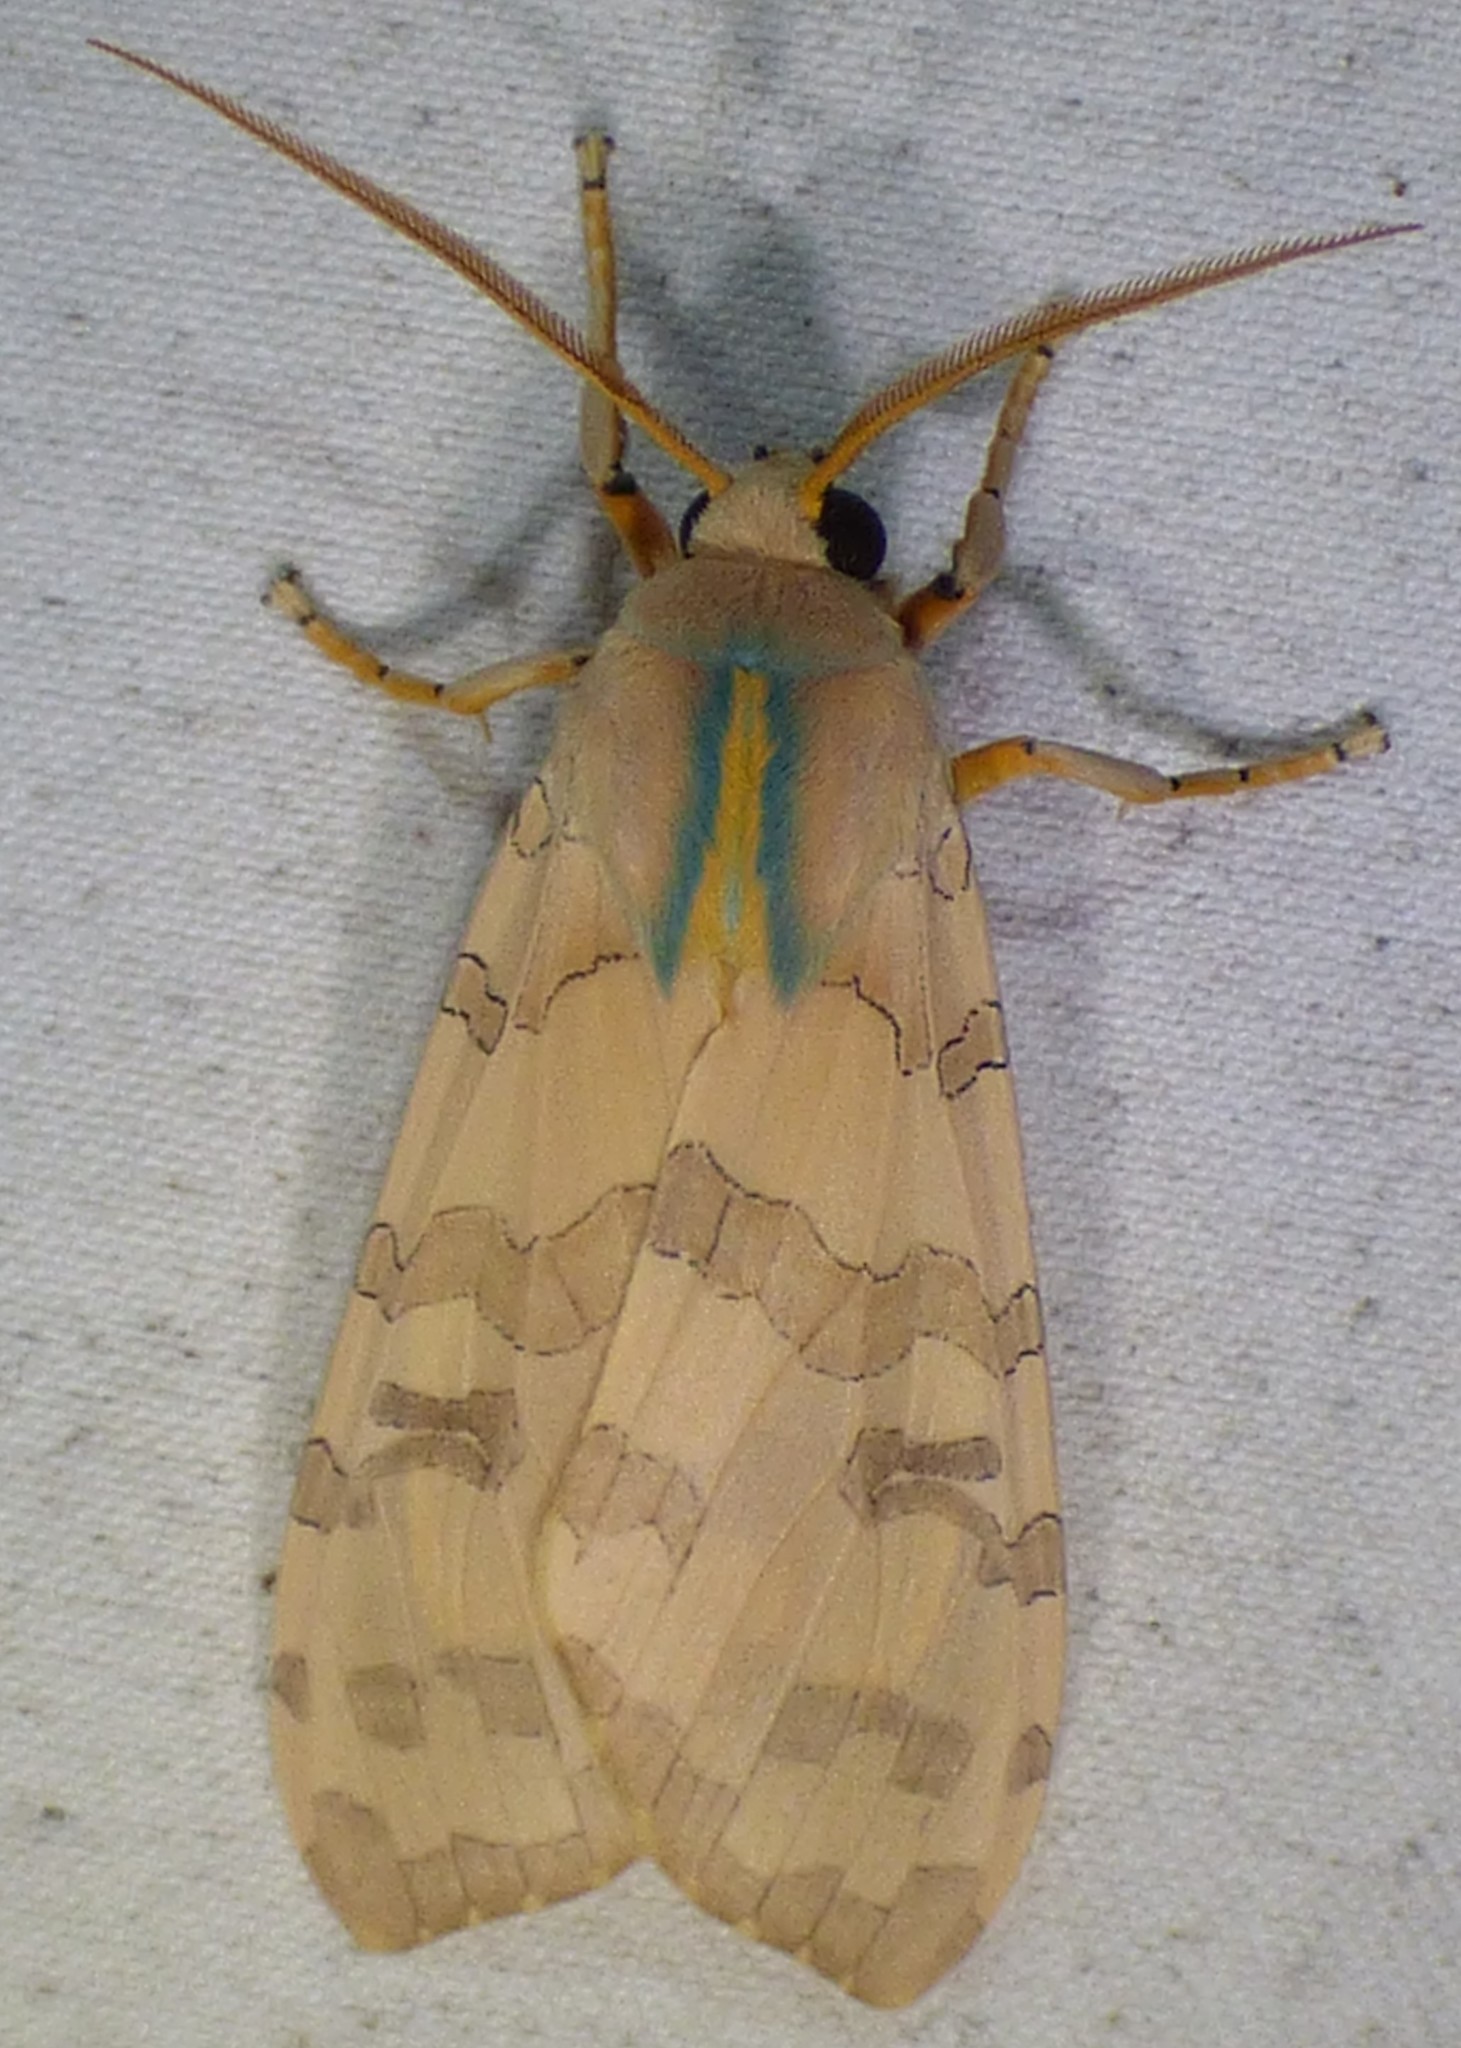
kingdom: Animalia
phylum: Arthropoda
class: Insecta
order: Lepidoptera
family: Erebidae
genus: Halysidota
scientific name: Halysidota
